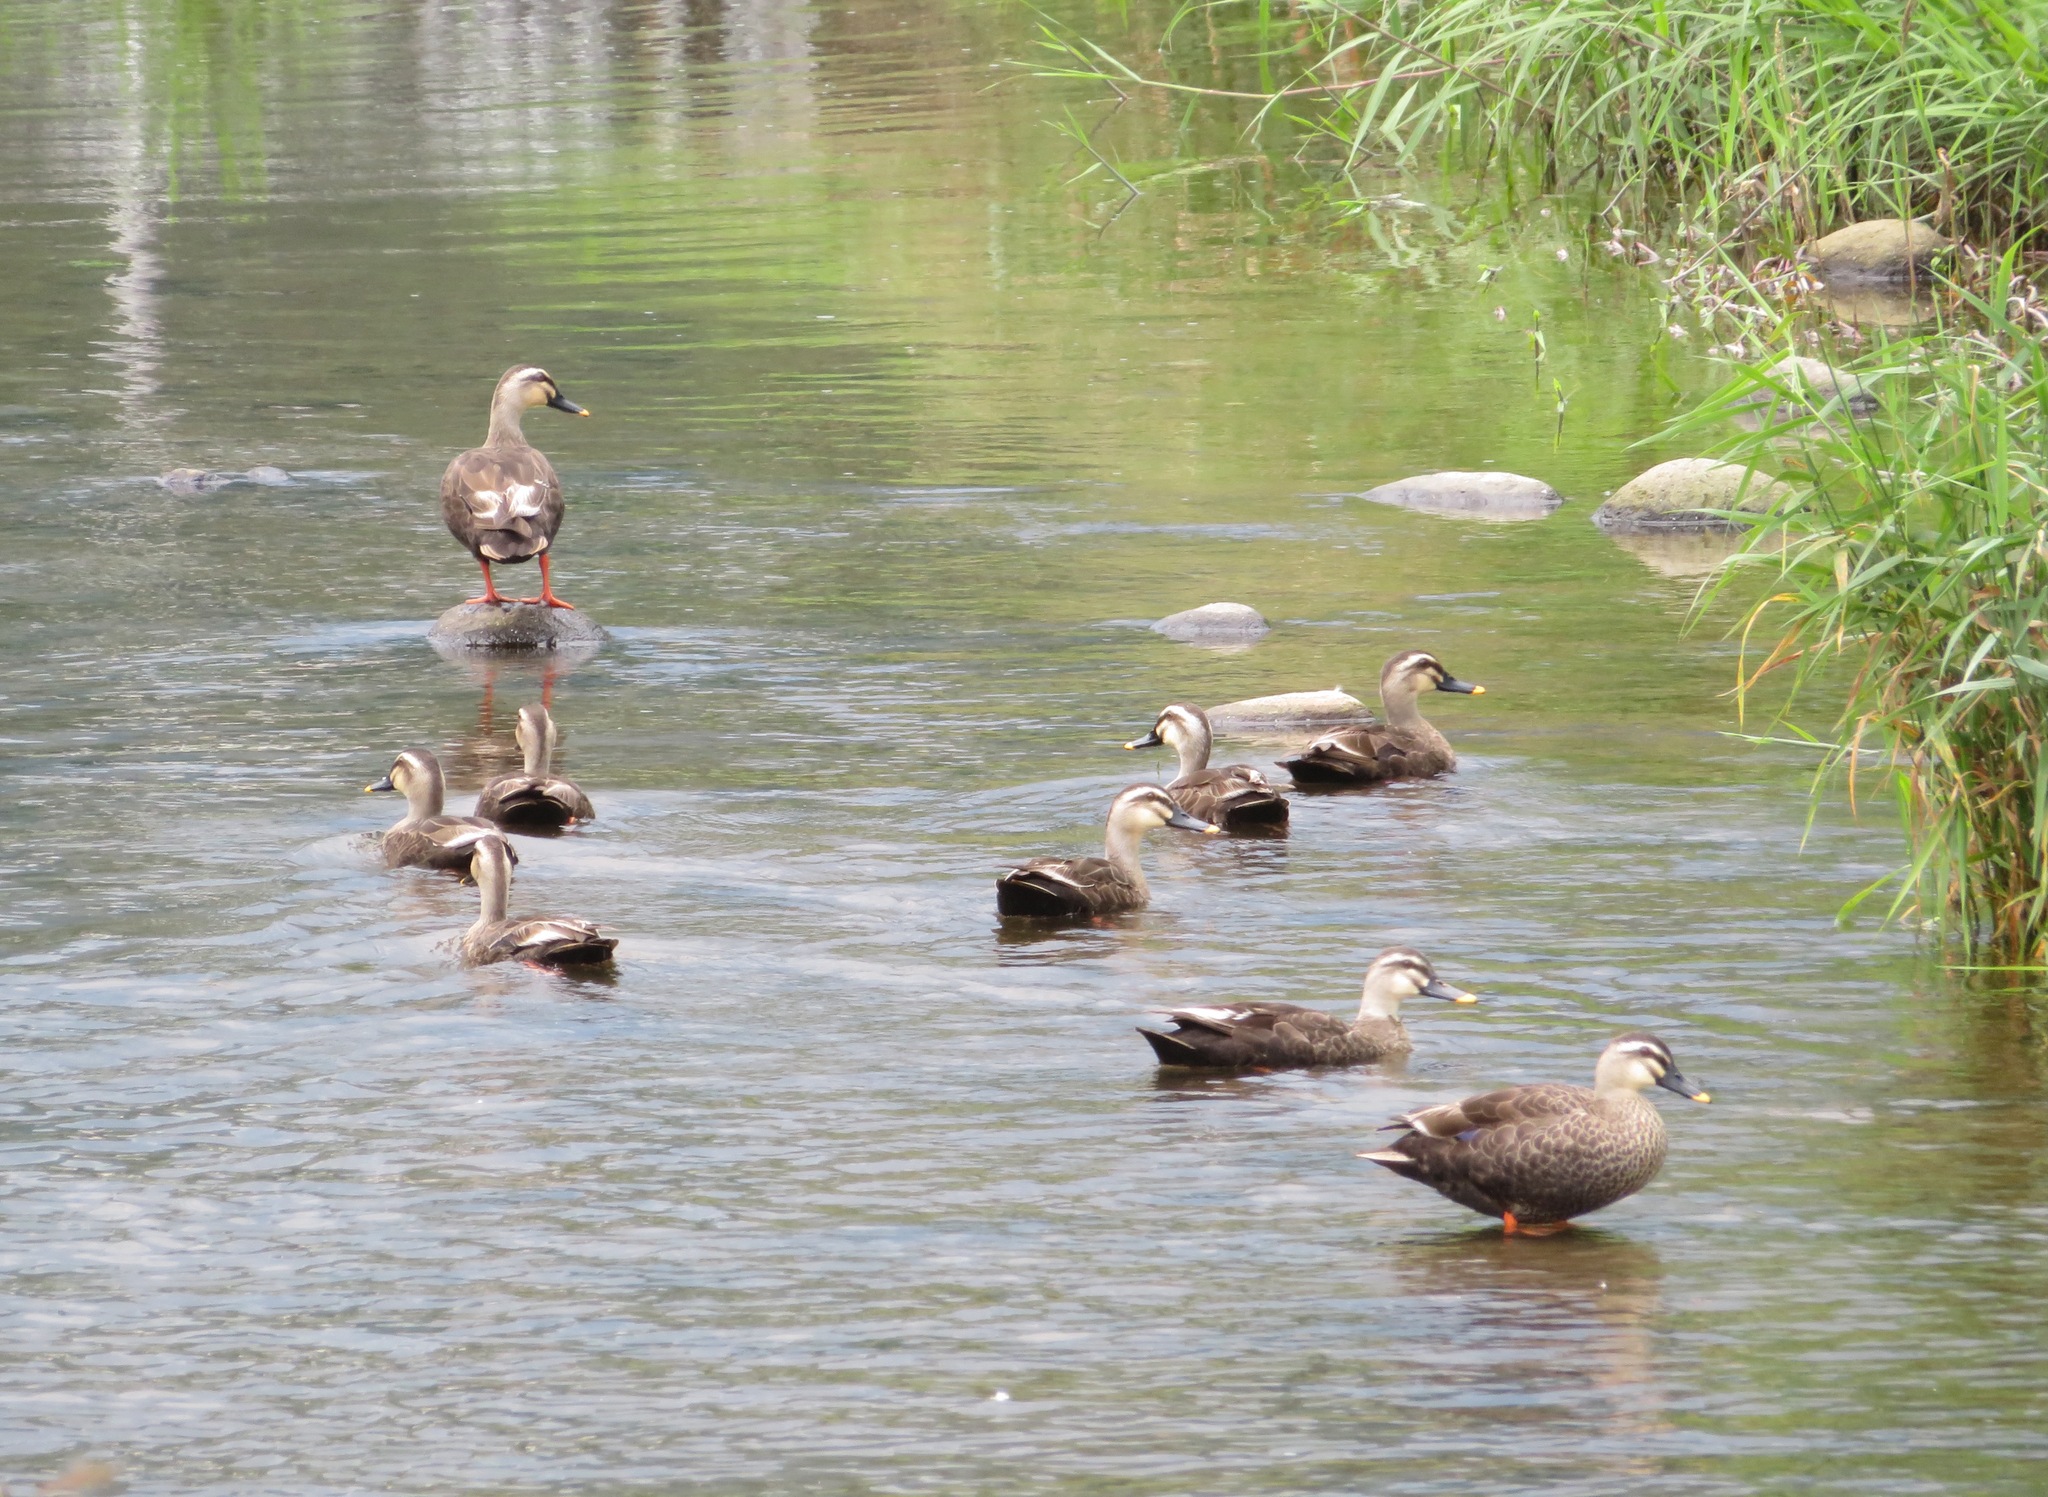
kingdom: Animalia
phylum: Chordata
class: Aves
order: Anseriformes
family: Anatidae
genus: Anas
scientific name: Anas zonorhyncha
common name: Eastern spot-billed duck
